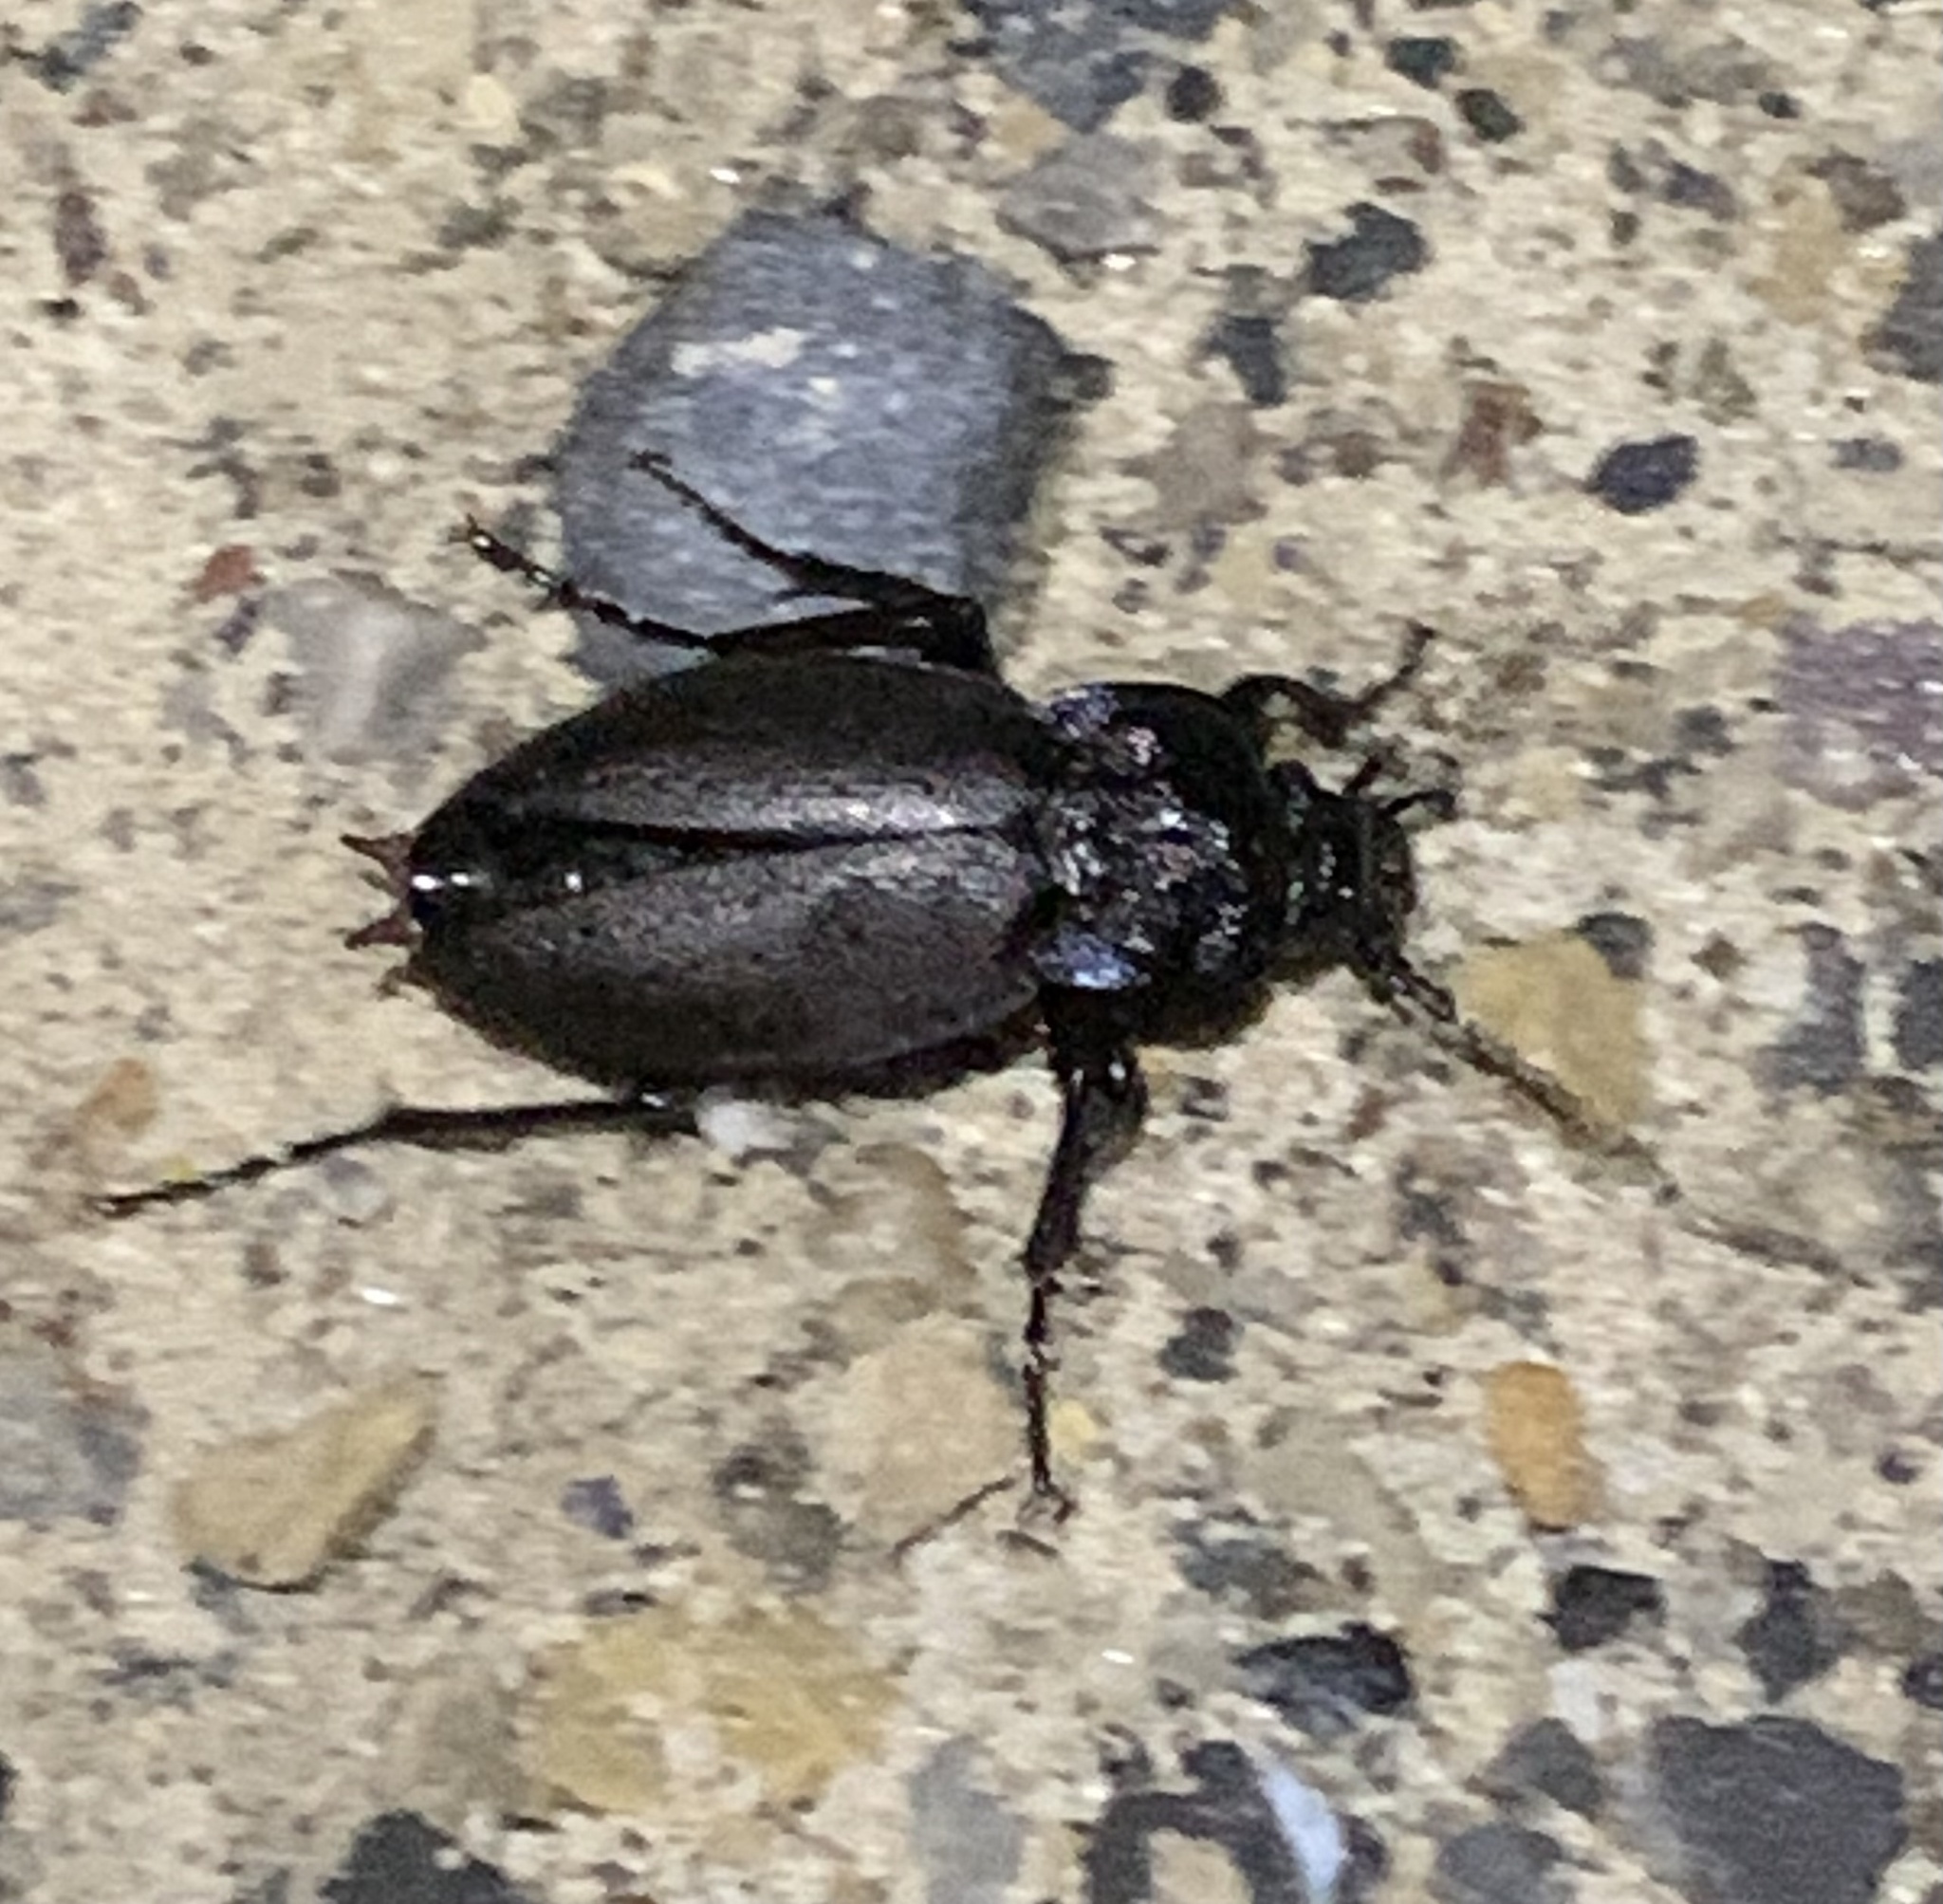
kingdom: Animalia
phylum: Arthropoda
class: Insecta
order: Coleoptera
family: Carabidae
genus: Carabus
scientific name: Carabus nemoralis
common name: European ground beetle
